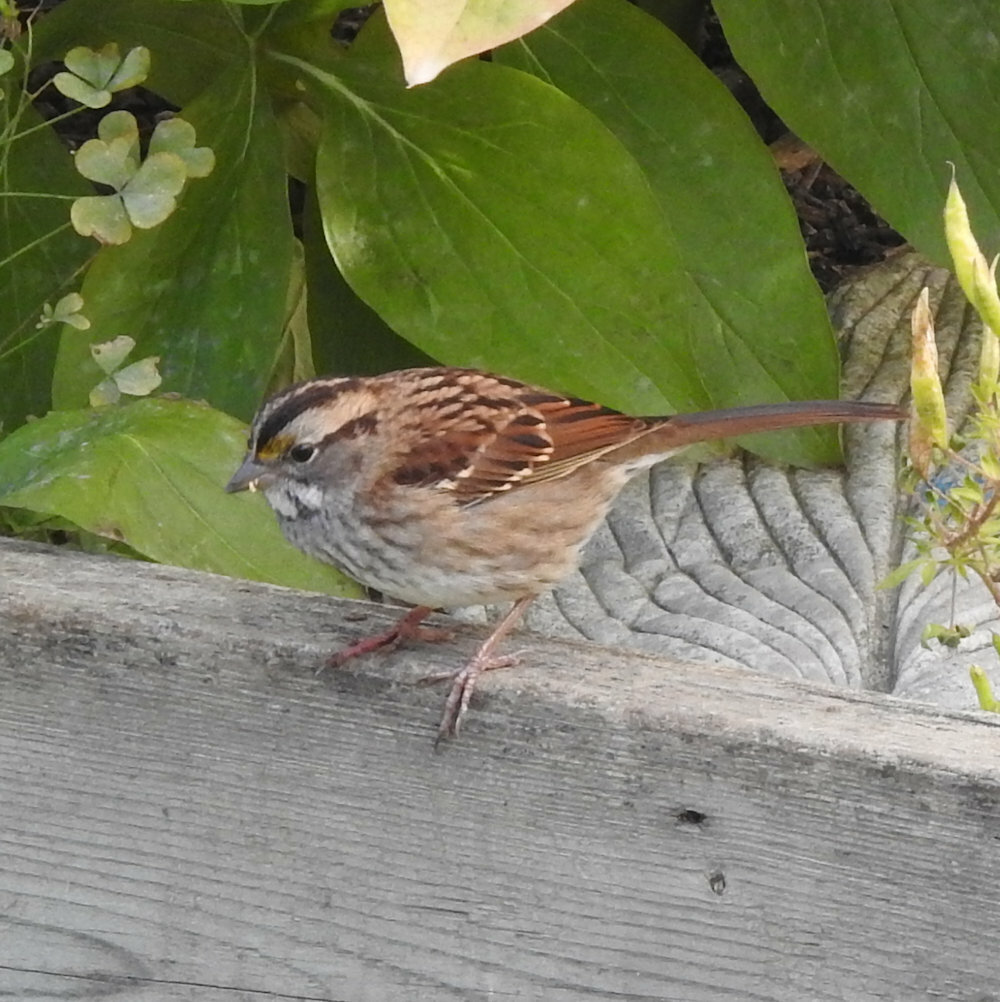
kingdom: Animalia
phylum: Chordata
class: Aves
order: Passeriformes
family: Passerellidae
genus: Zonotrichia
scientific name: Zonotrichia albicollis
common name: White-throated sparrow
